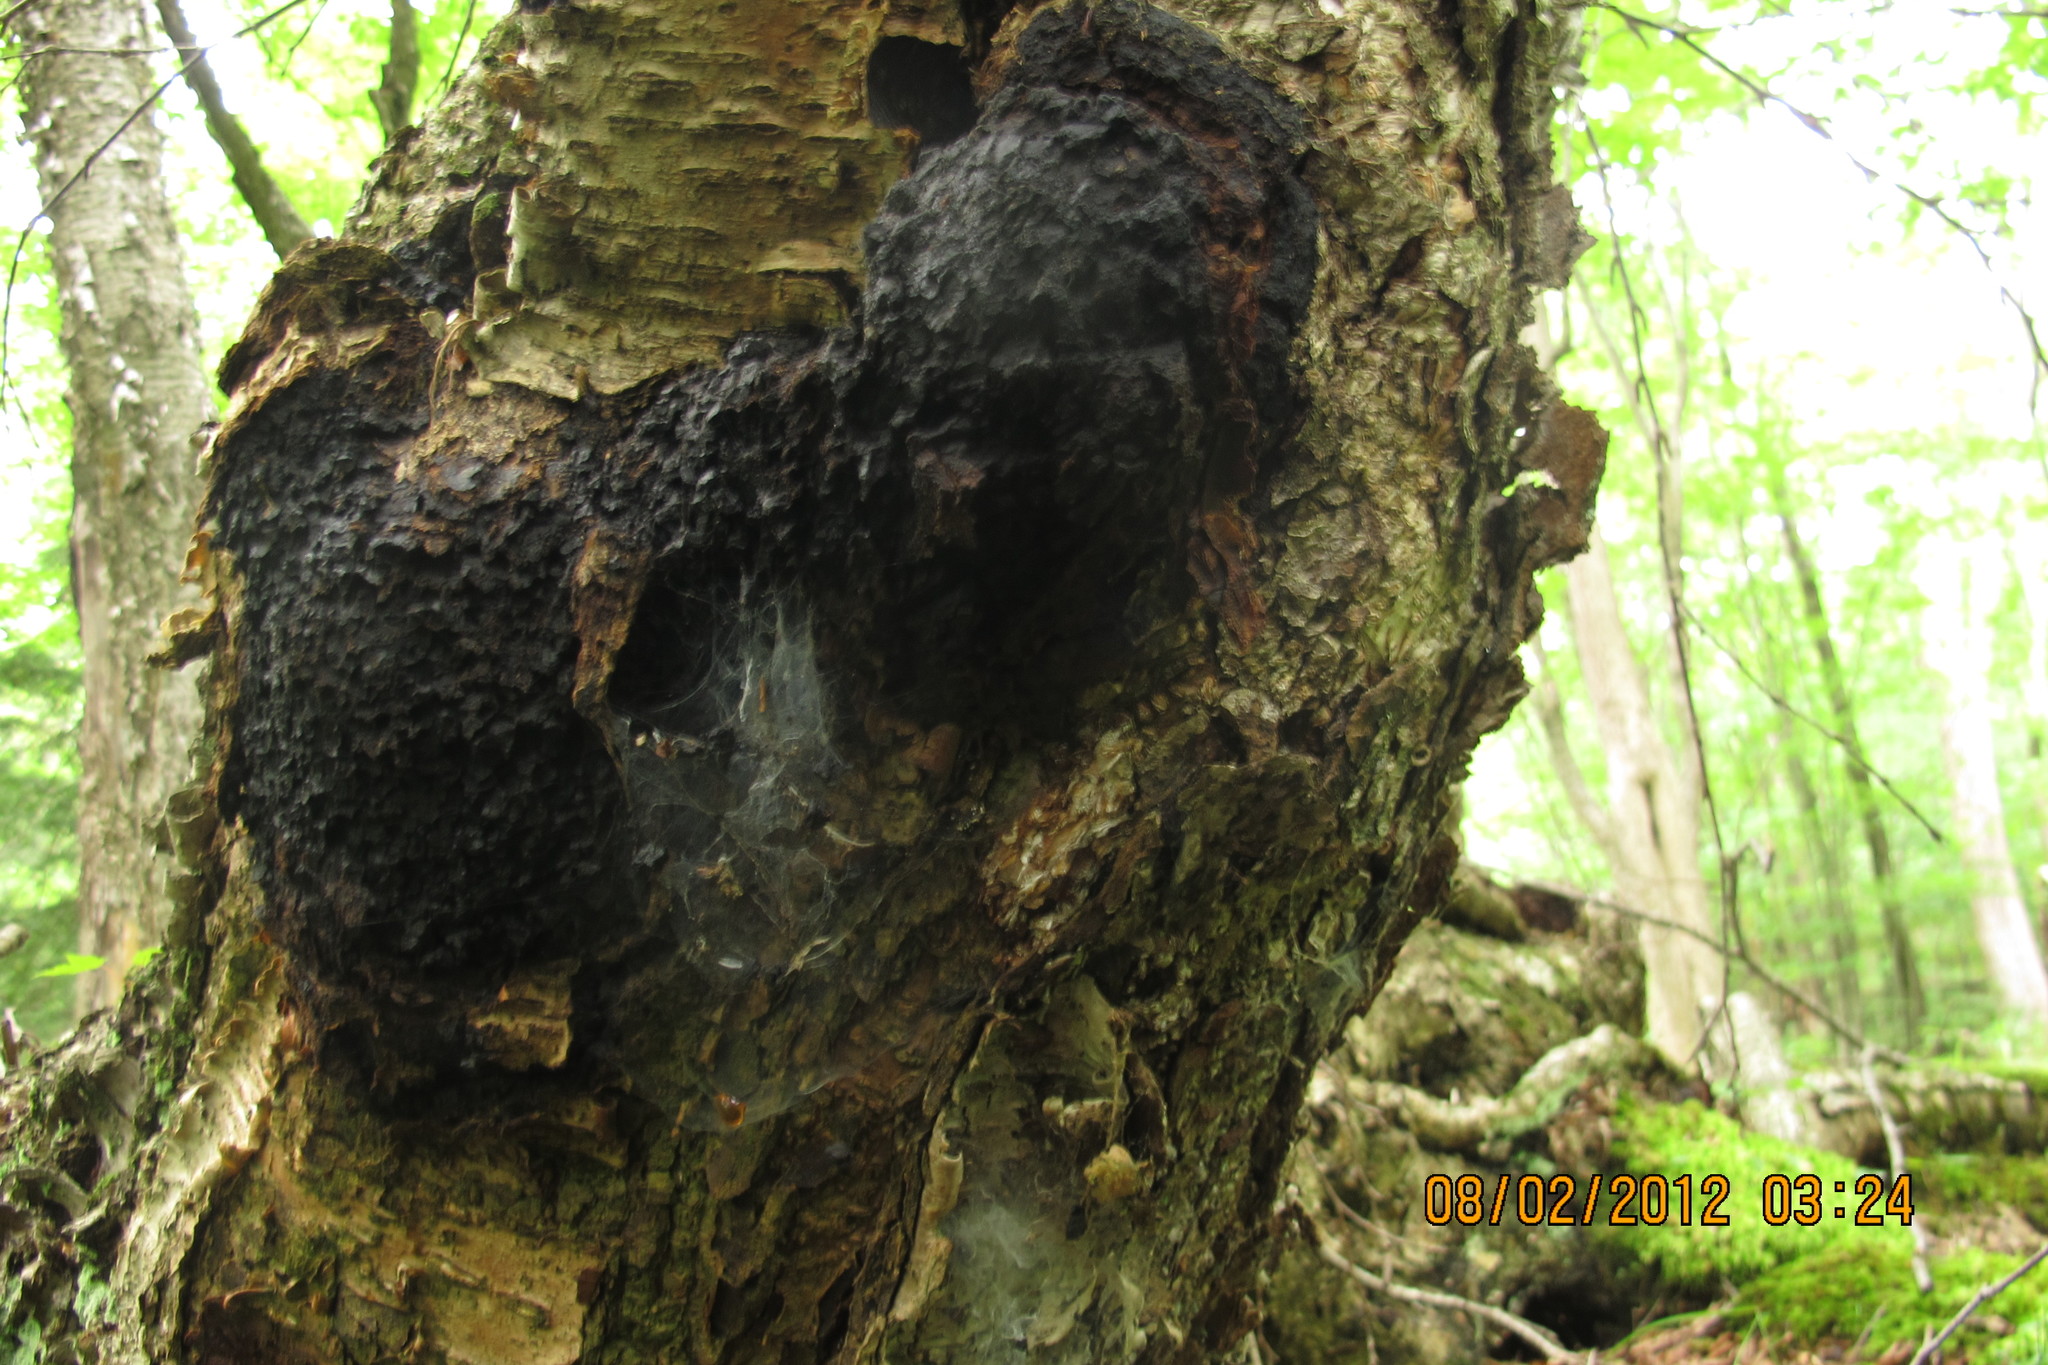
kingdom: Fungi
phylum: Basidiomycota
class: Agaricomycetes
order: Hymenochaetales
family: Hymenochaetaceae
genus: Inonotus
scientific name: Inonotus obliquus
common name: Chaga
